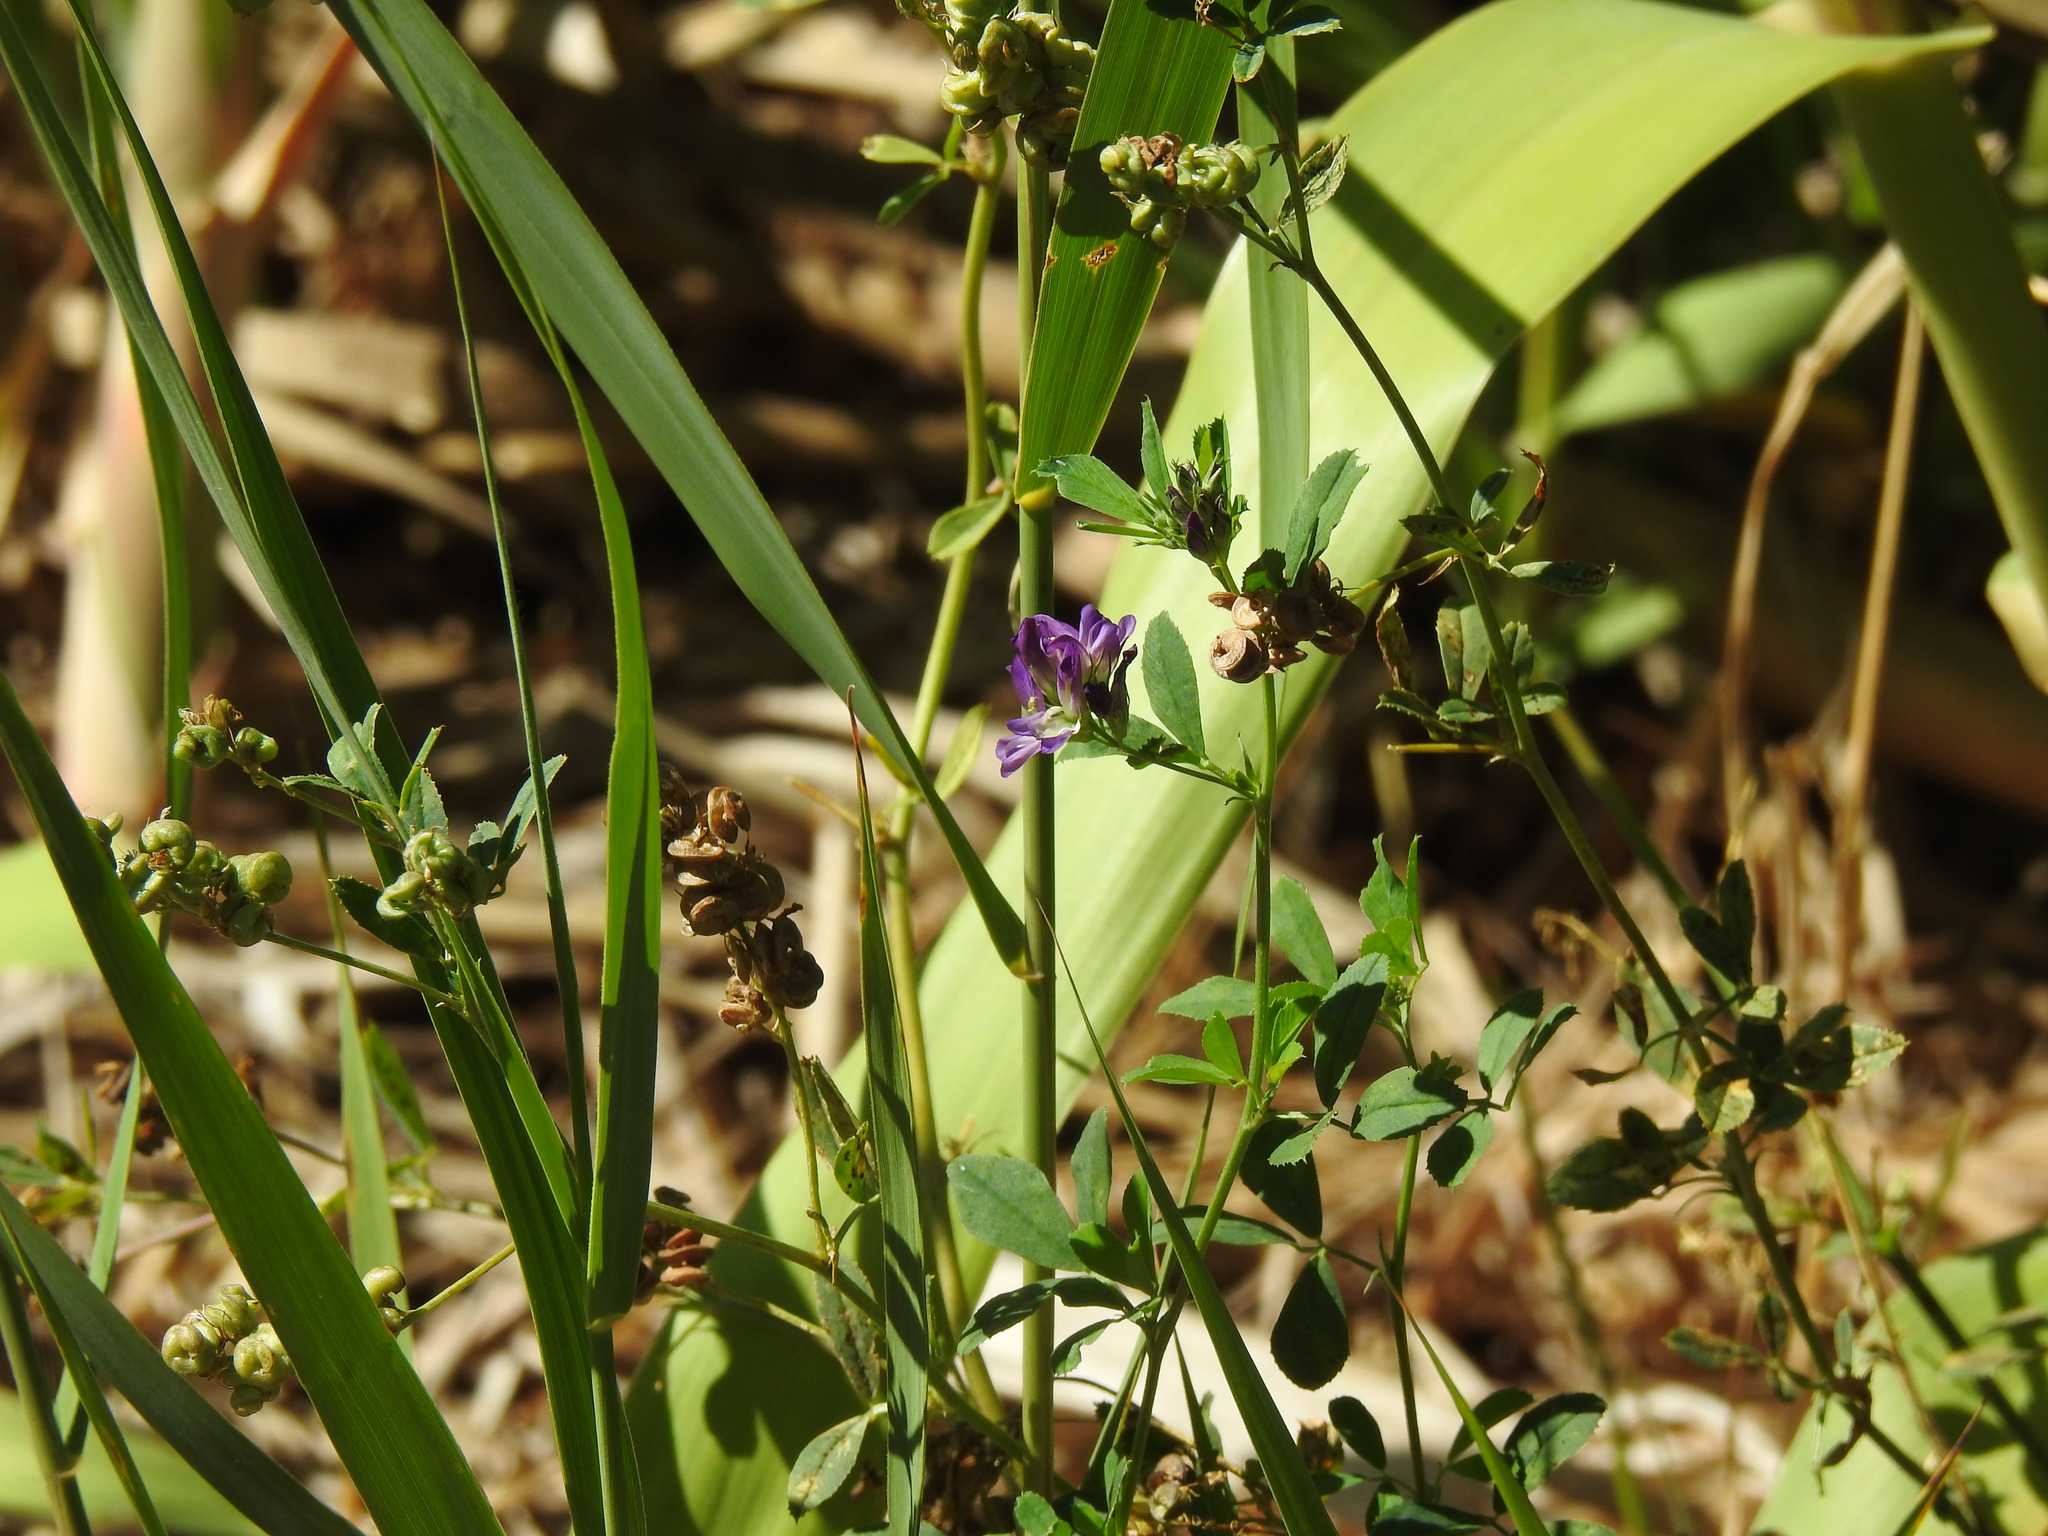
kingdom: Plantae
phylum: Tracheophyta
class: Magnoliopsida
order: Fabales
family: Fabaceae
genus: Medicago
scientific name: Medicago sativa
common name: Alfalfa
